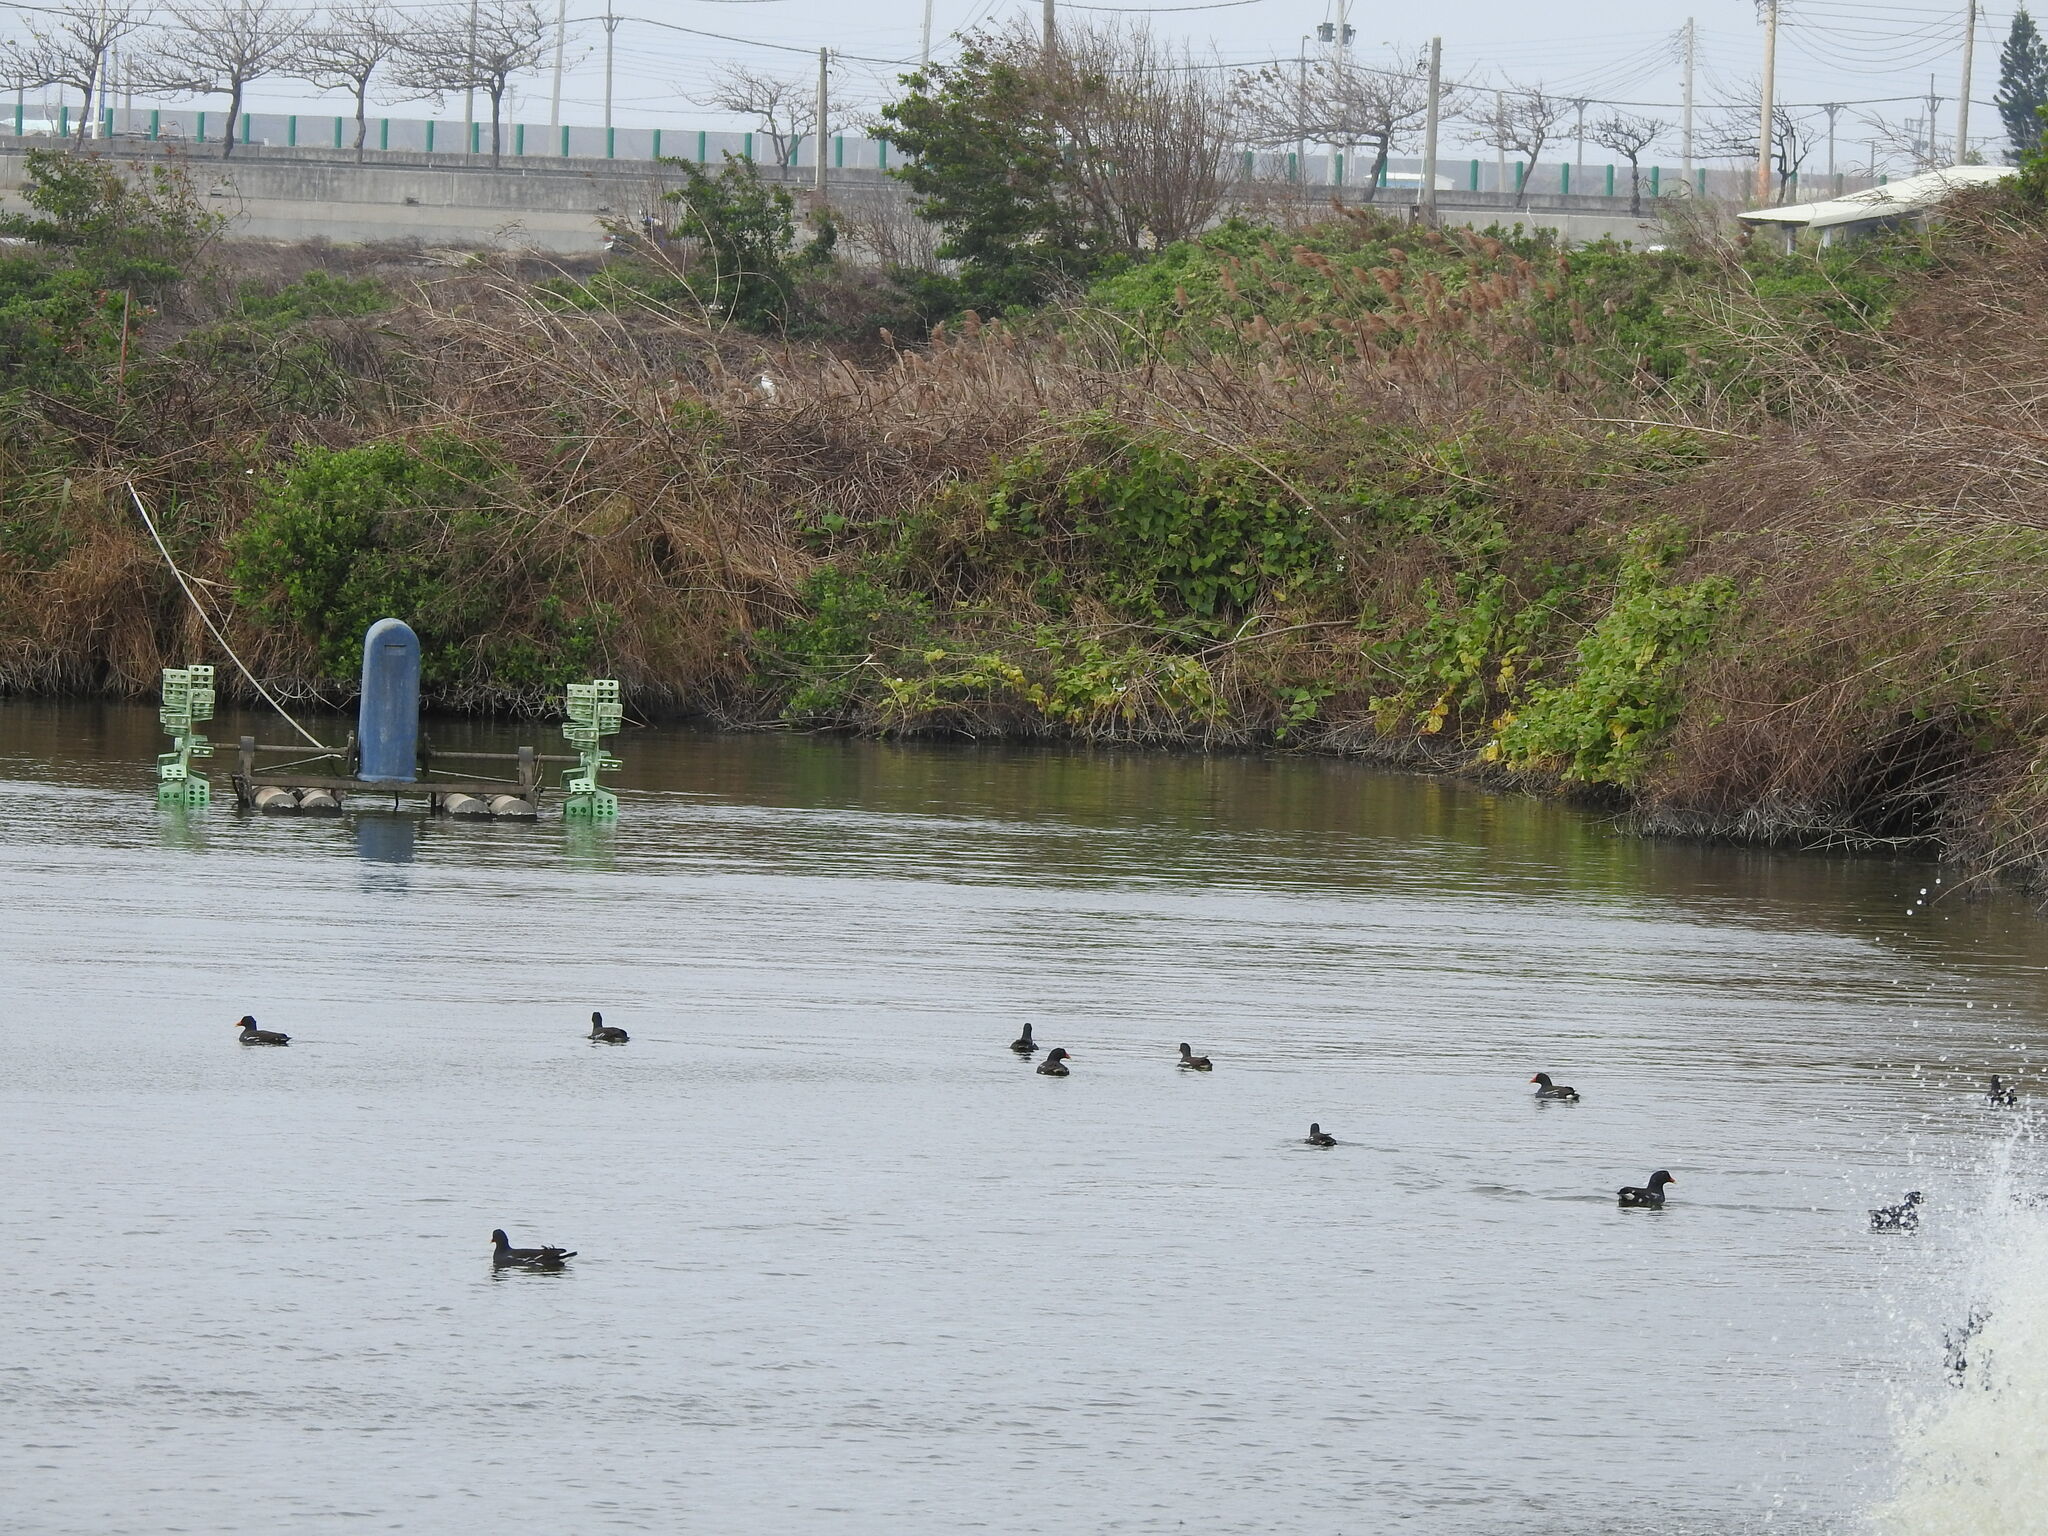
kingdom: Animalia
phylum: Chordata
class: Aves
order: Gruiformes
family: Rallidae
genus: Gallinula
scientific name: Gallinula chloropus
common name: Common moorhen
